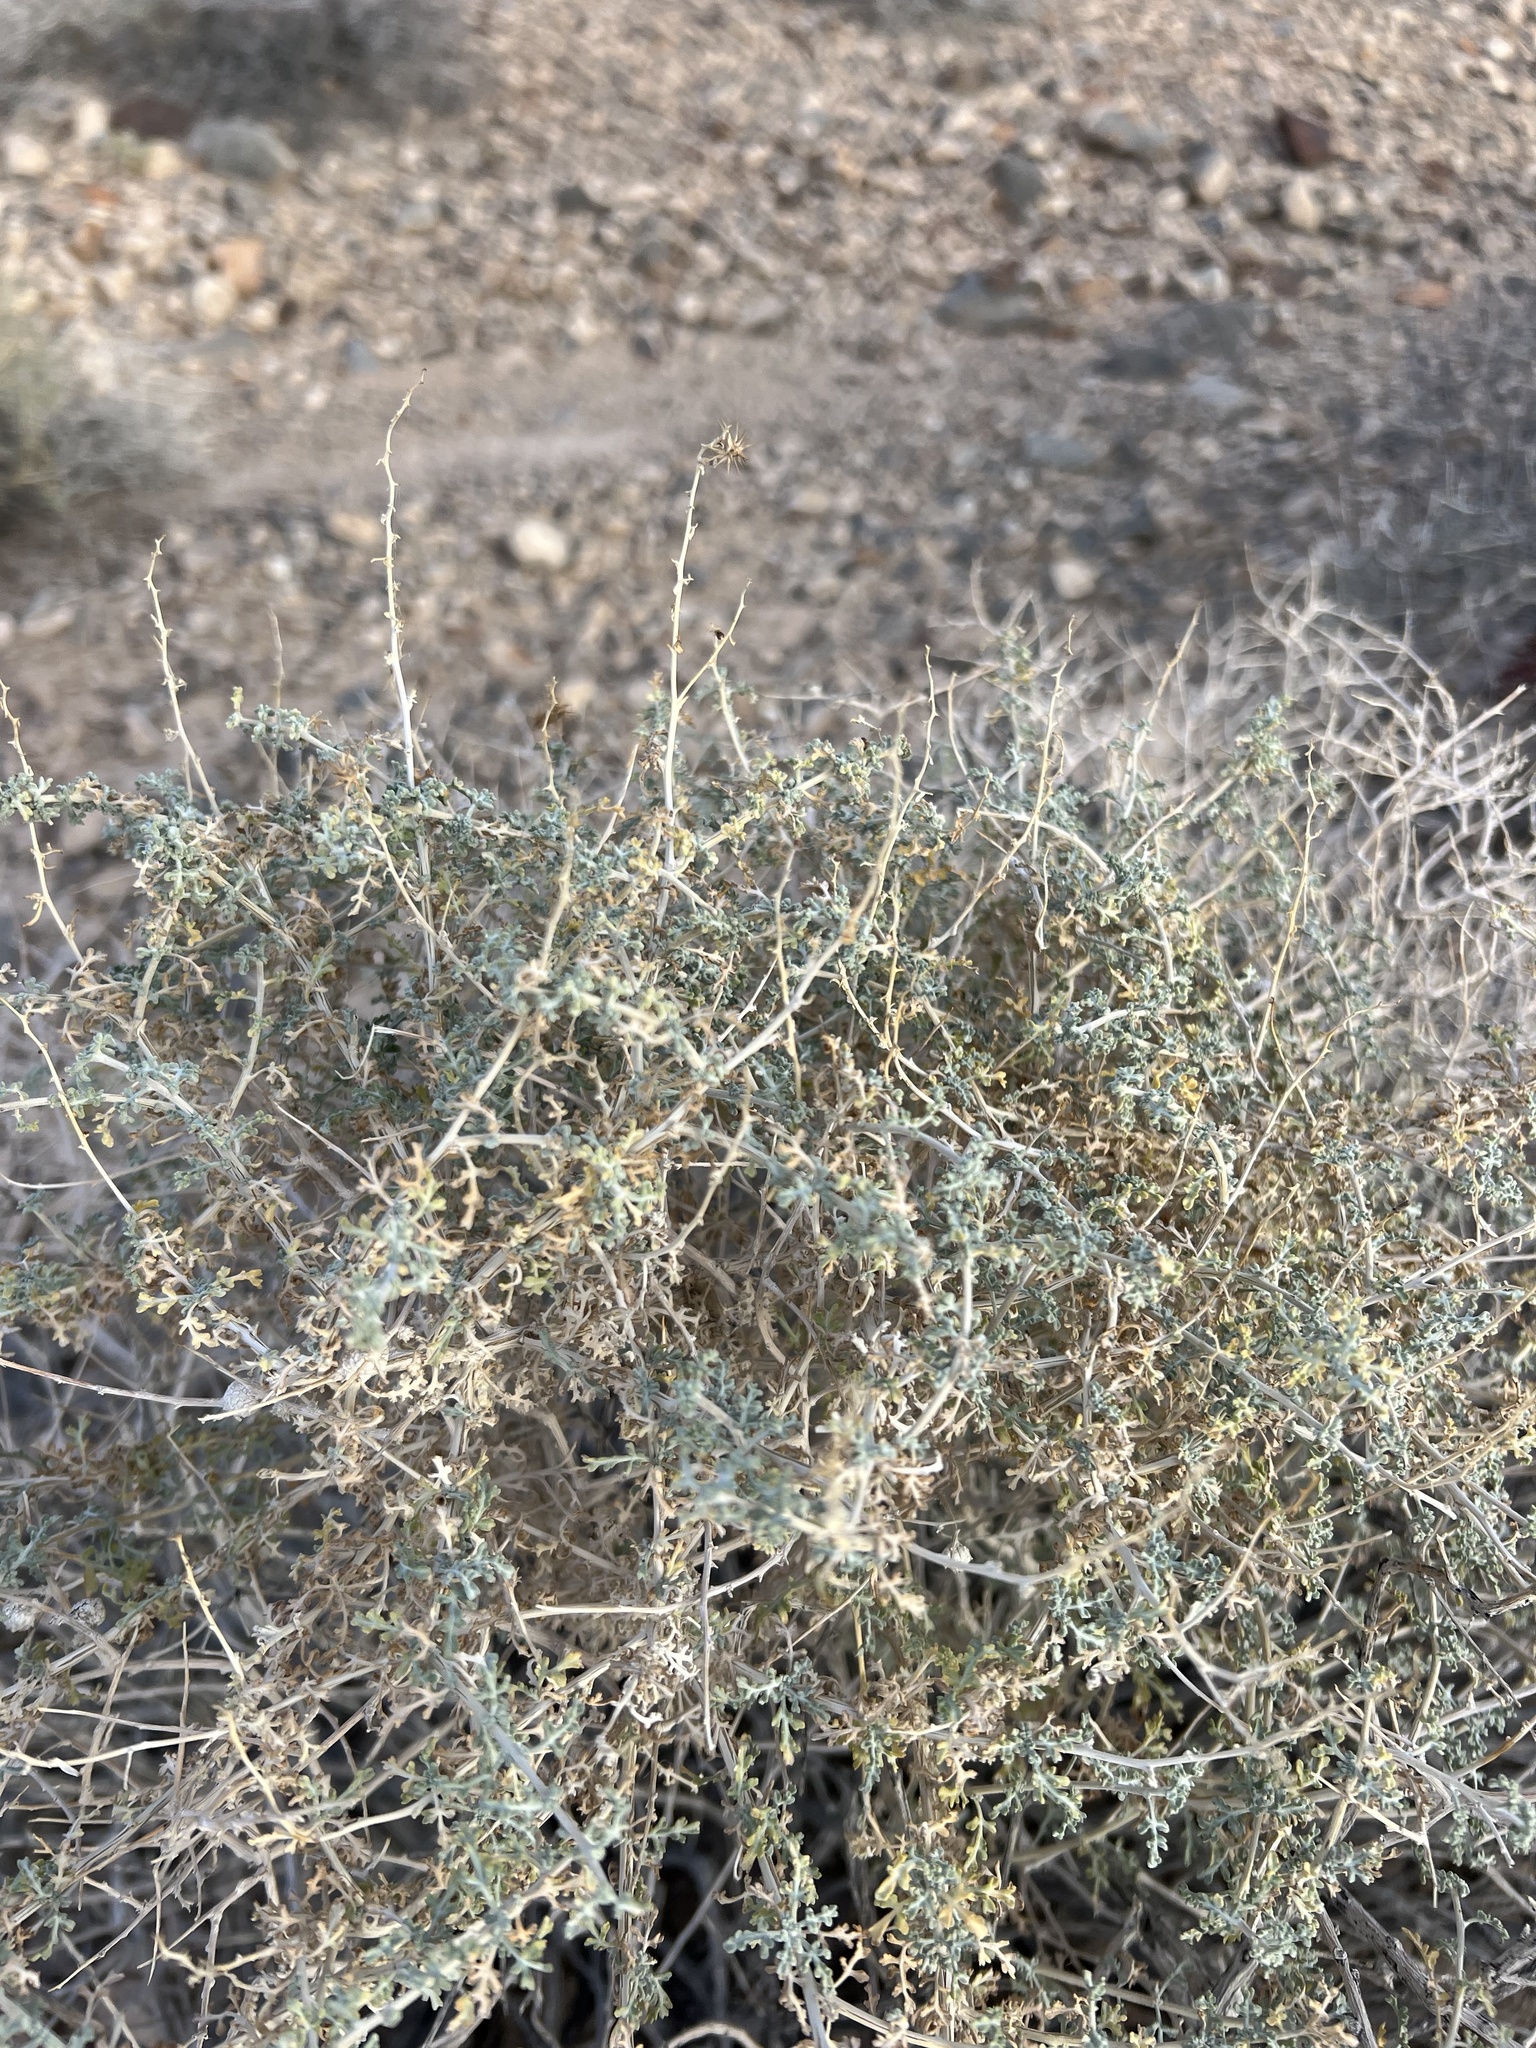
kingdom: Plantae
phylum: Tracheophyta
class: Magnoliopsida
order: Asterales
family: Asteraceae
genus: Ambrosia
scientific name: Ambrosia dumosa
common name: Bur-sage
